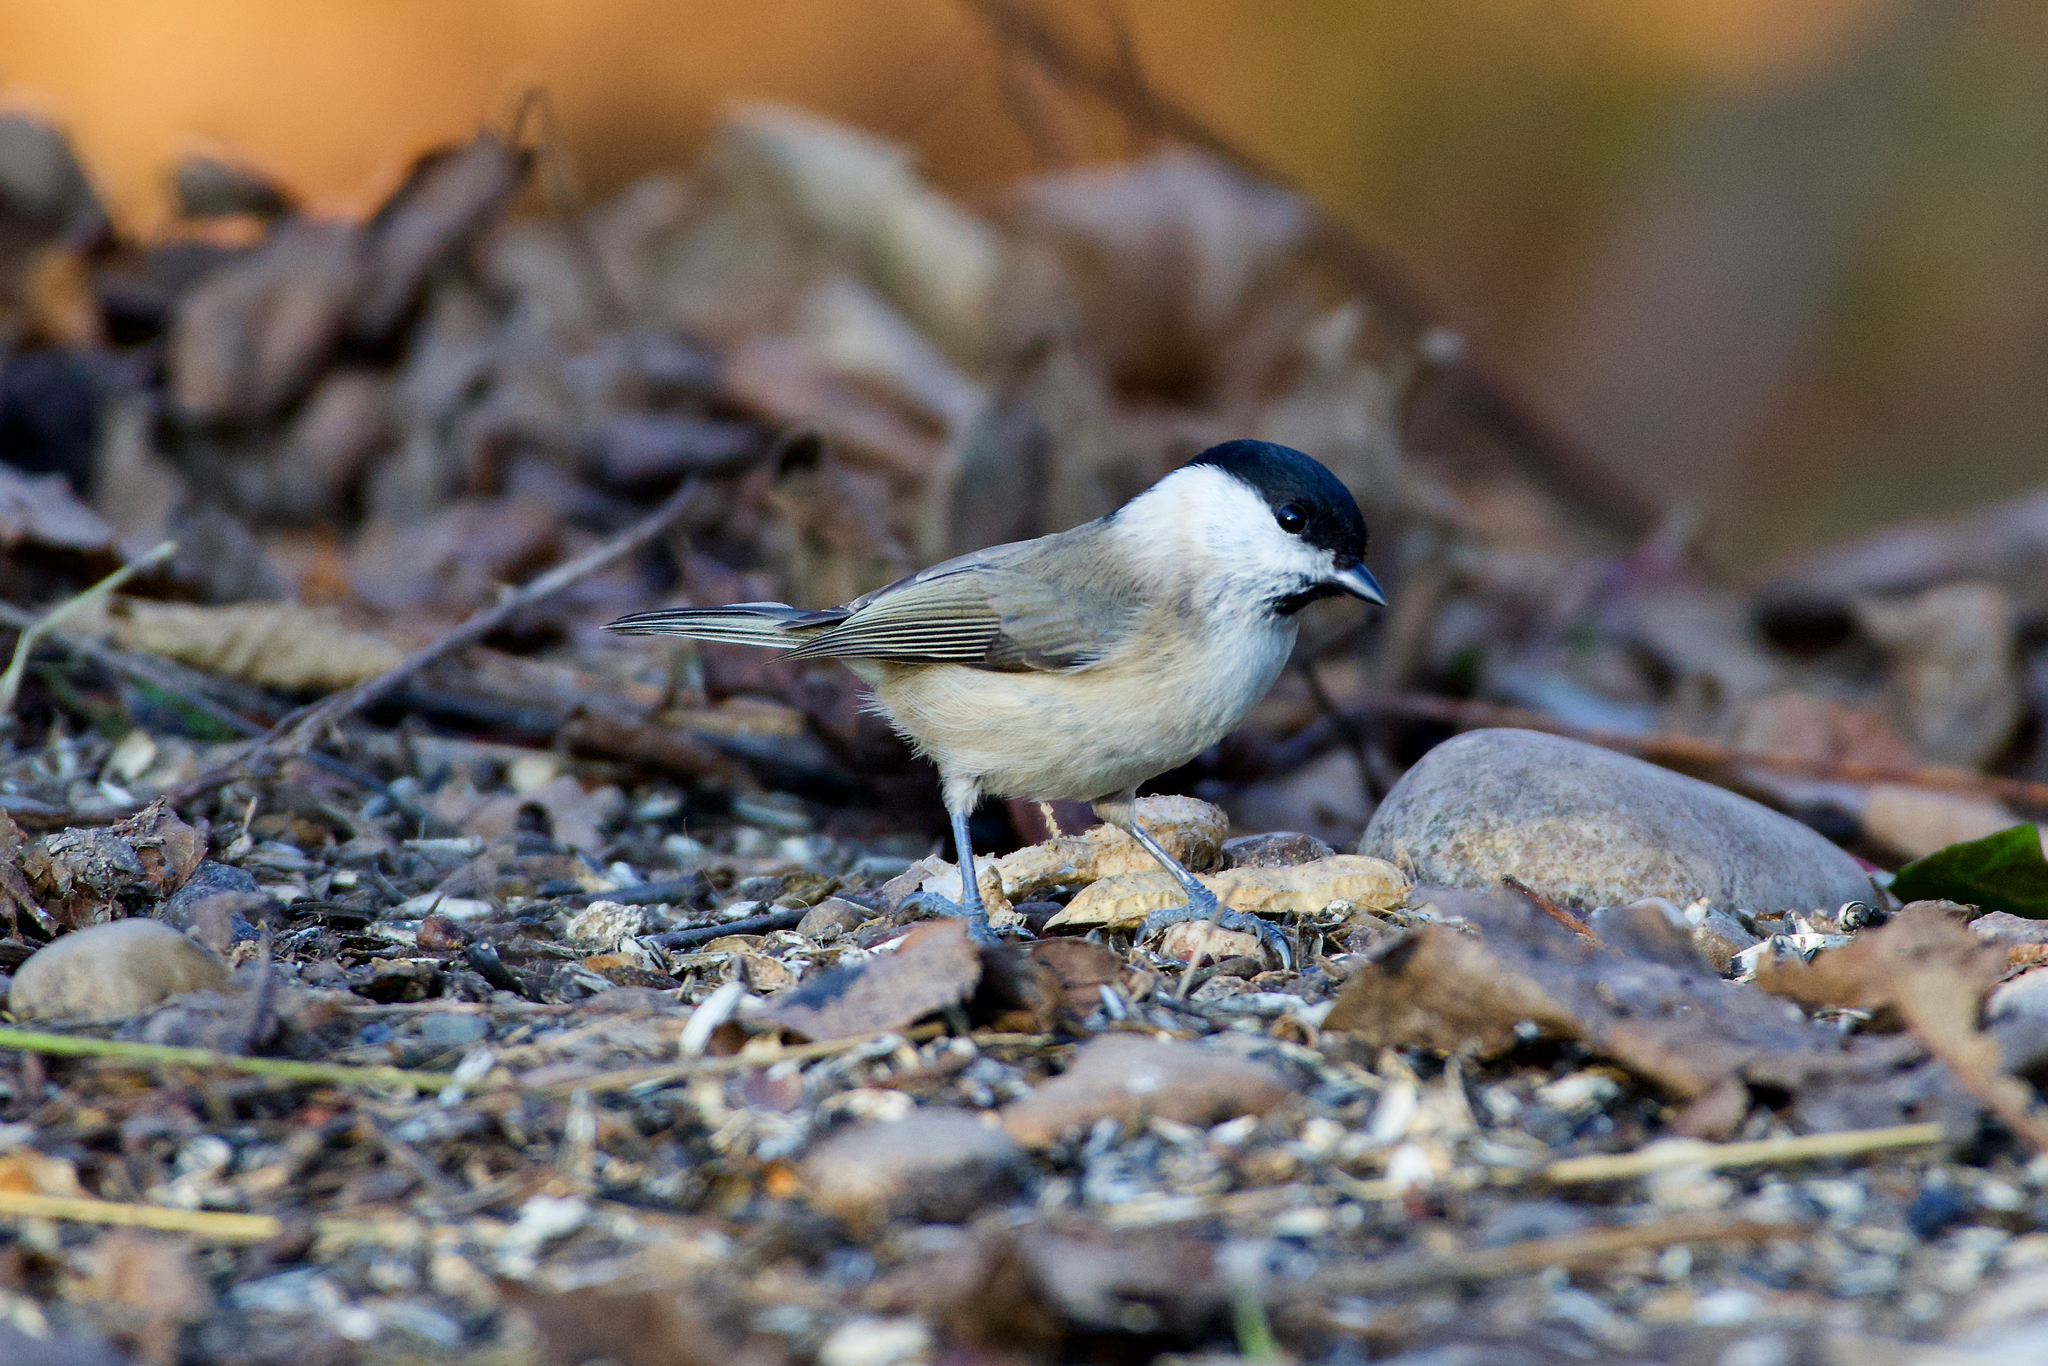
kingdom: Animalia
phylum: Chordata
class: Aves
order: Passeriformes
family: Paridae
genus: Poecile
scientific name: Poecile palustris
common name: Marsh tit
